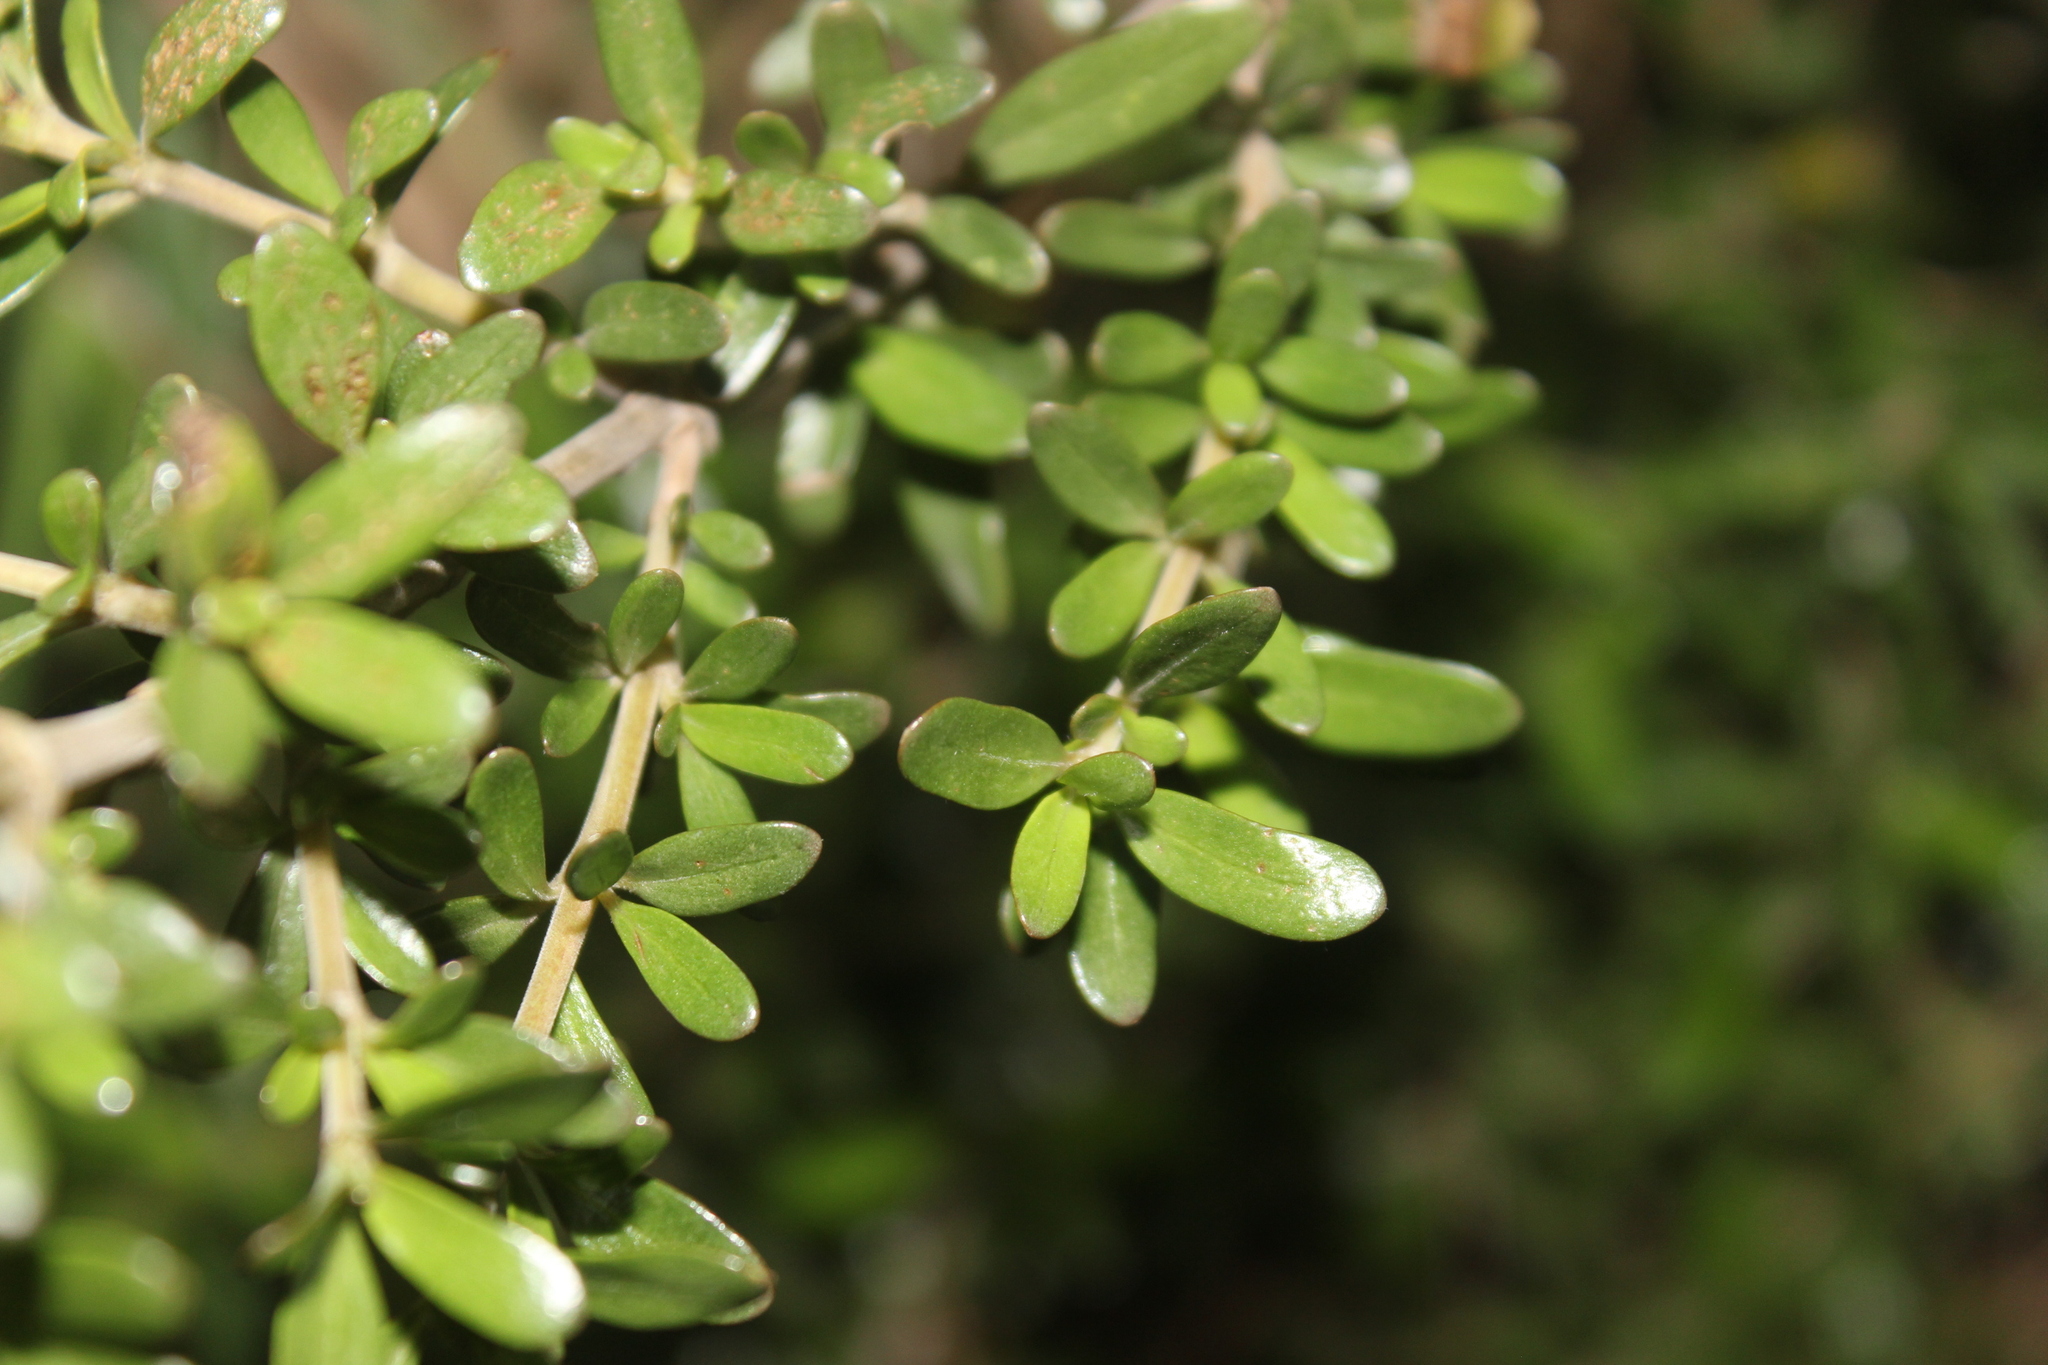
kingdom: Plantae
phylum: Tracheophyta
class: Magnoliopsida
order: Gentianales
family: Rubiaceae
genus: Coprosma
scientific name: Coprosma kirkii
